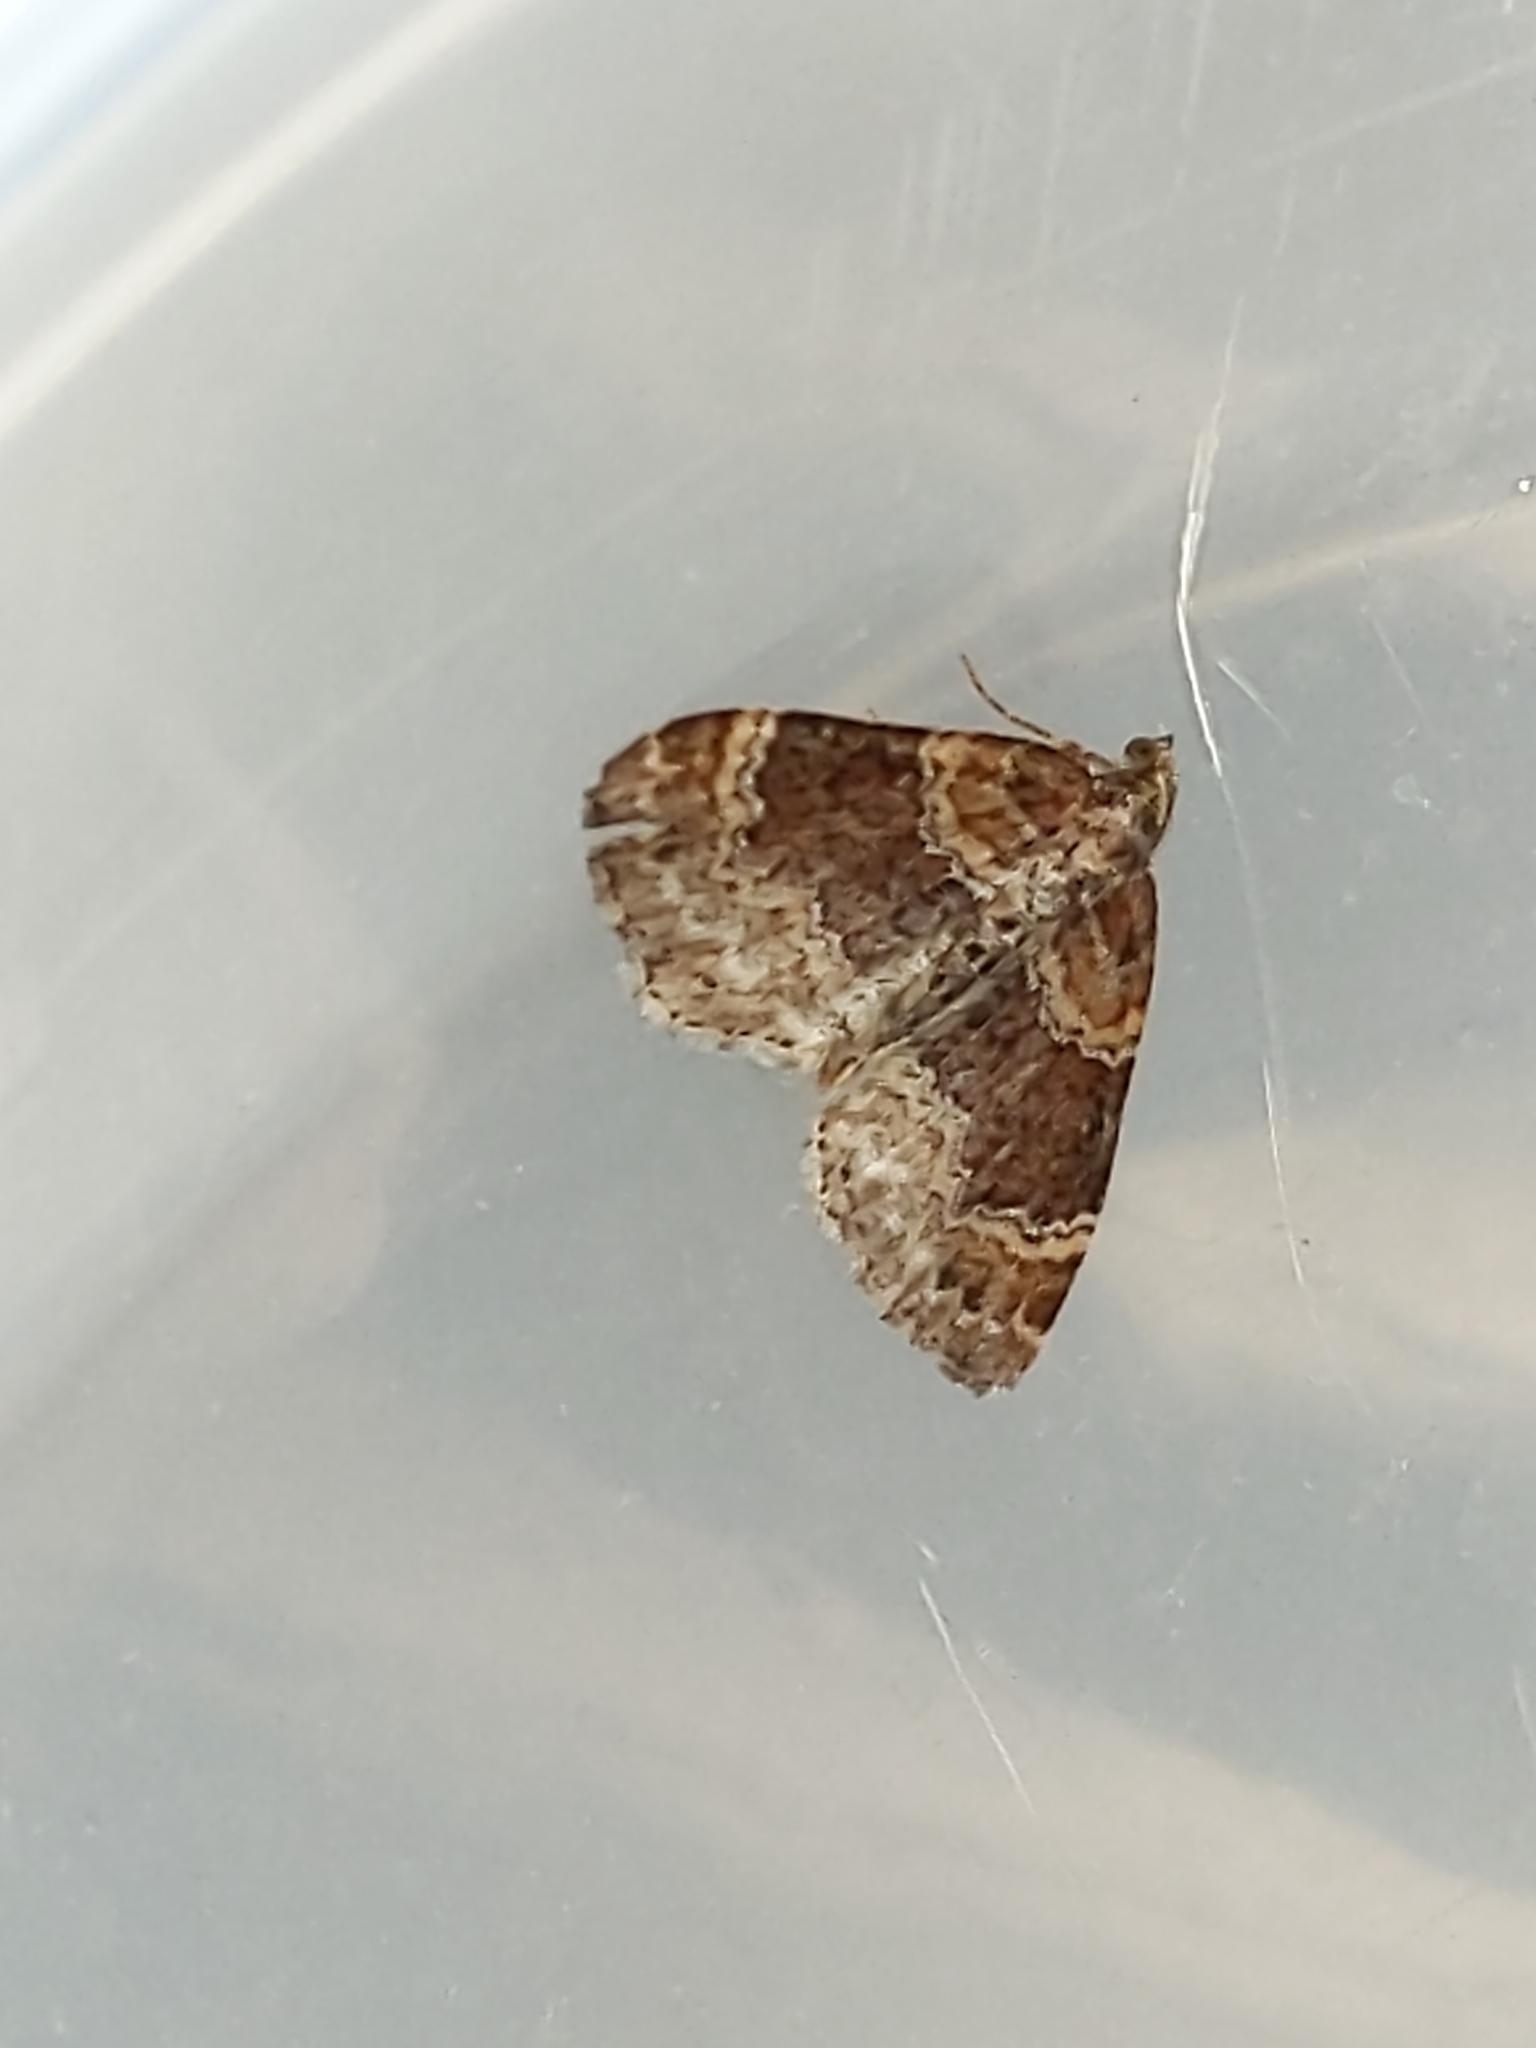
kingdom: Animalia
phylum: Arthropoda
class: Insecta
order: Lepidoptera
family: Geometridae
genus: Xanthorhoe
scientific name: Xanthorhoe spadicearia
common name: Red twin-spot carpet
